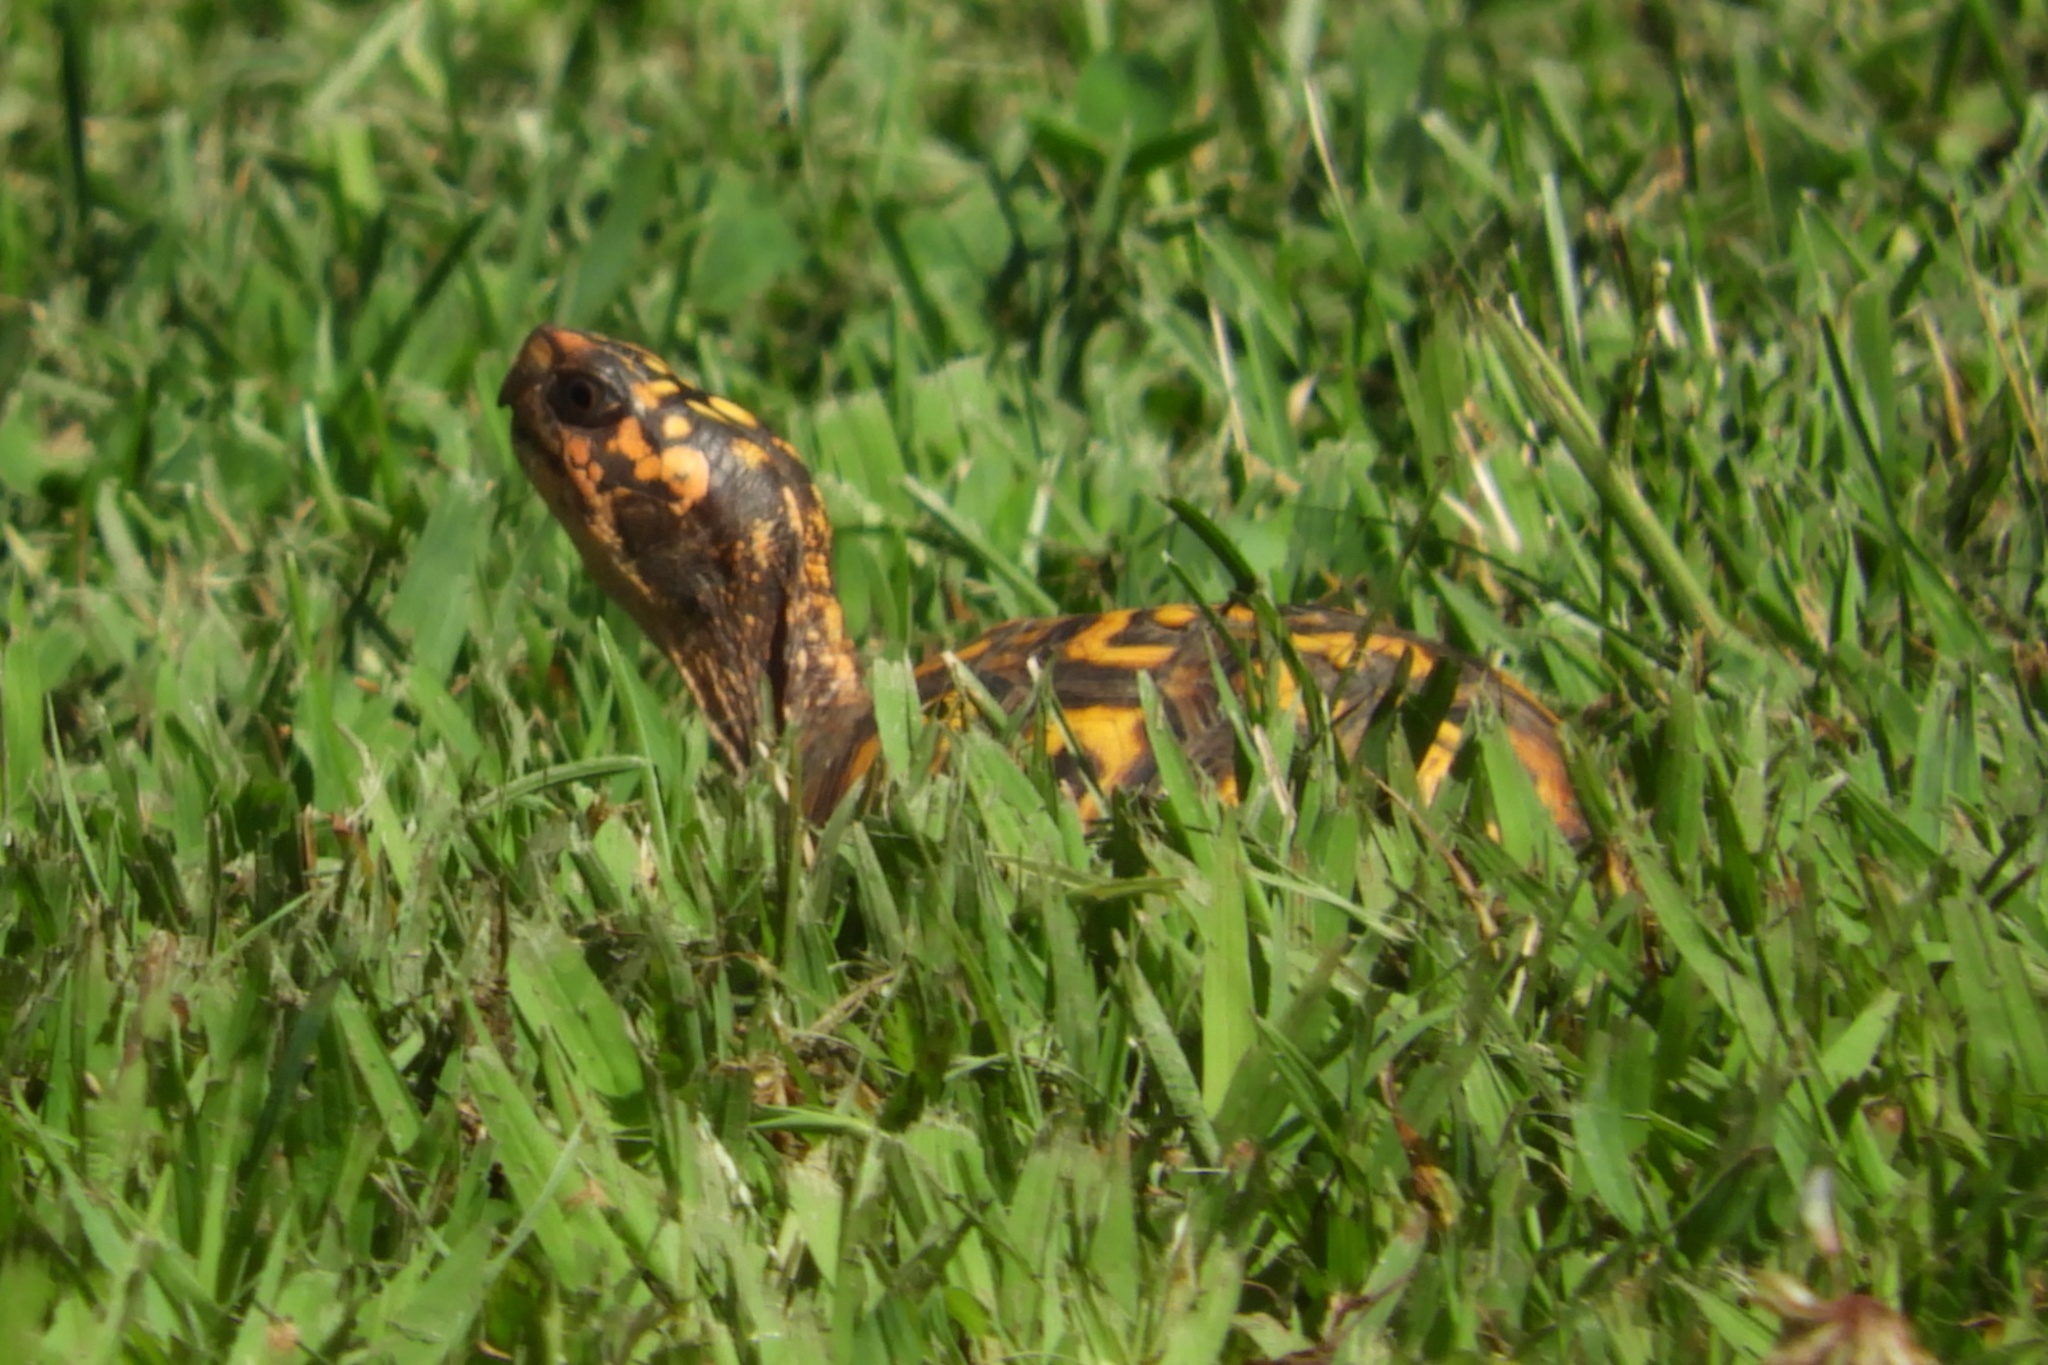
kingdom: Animalia
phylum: Chordata
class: Testudines
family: Emydidae
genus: Terrapene
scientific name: Terrapene carolina
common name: Common box turtle
